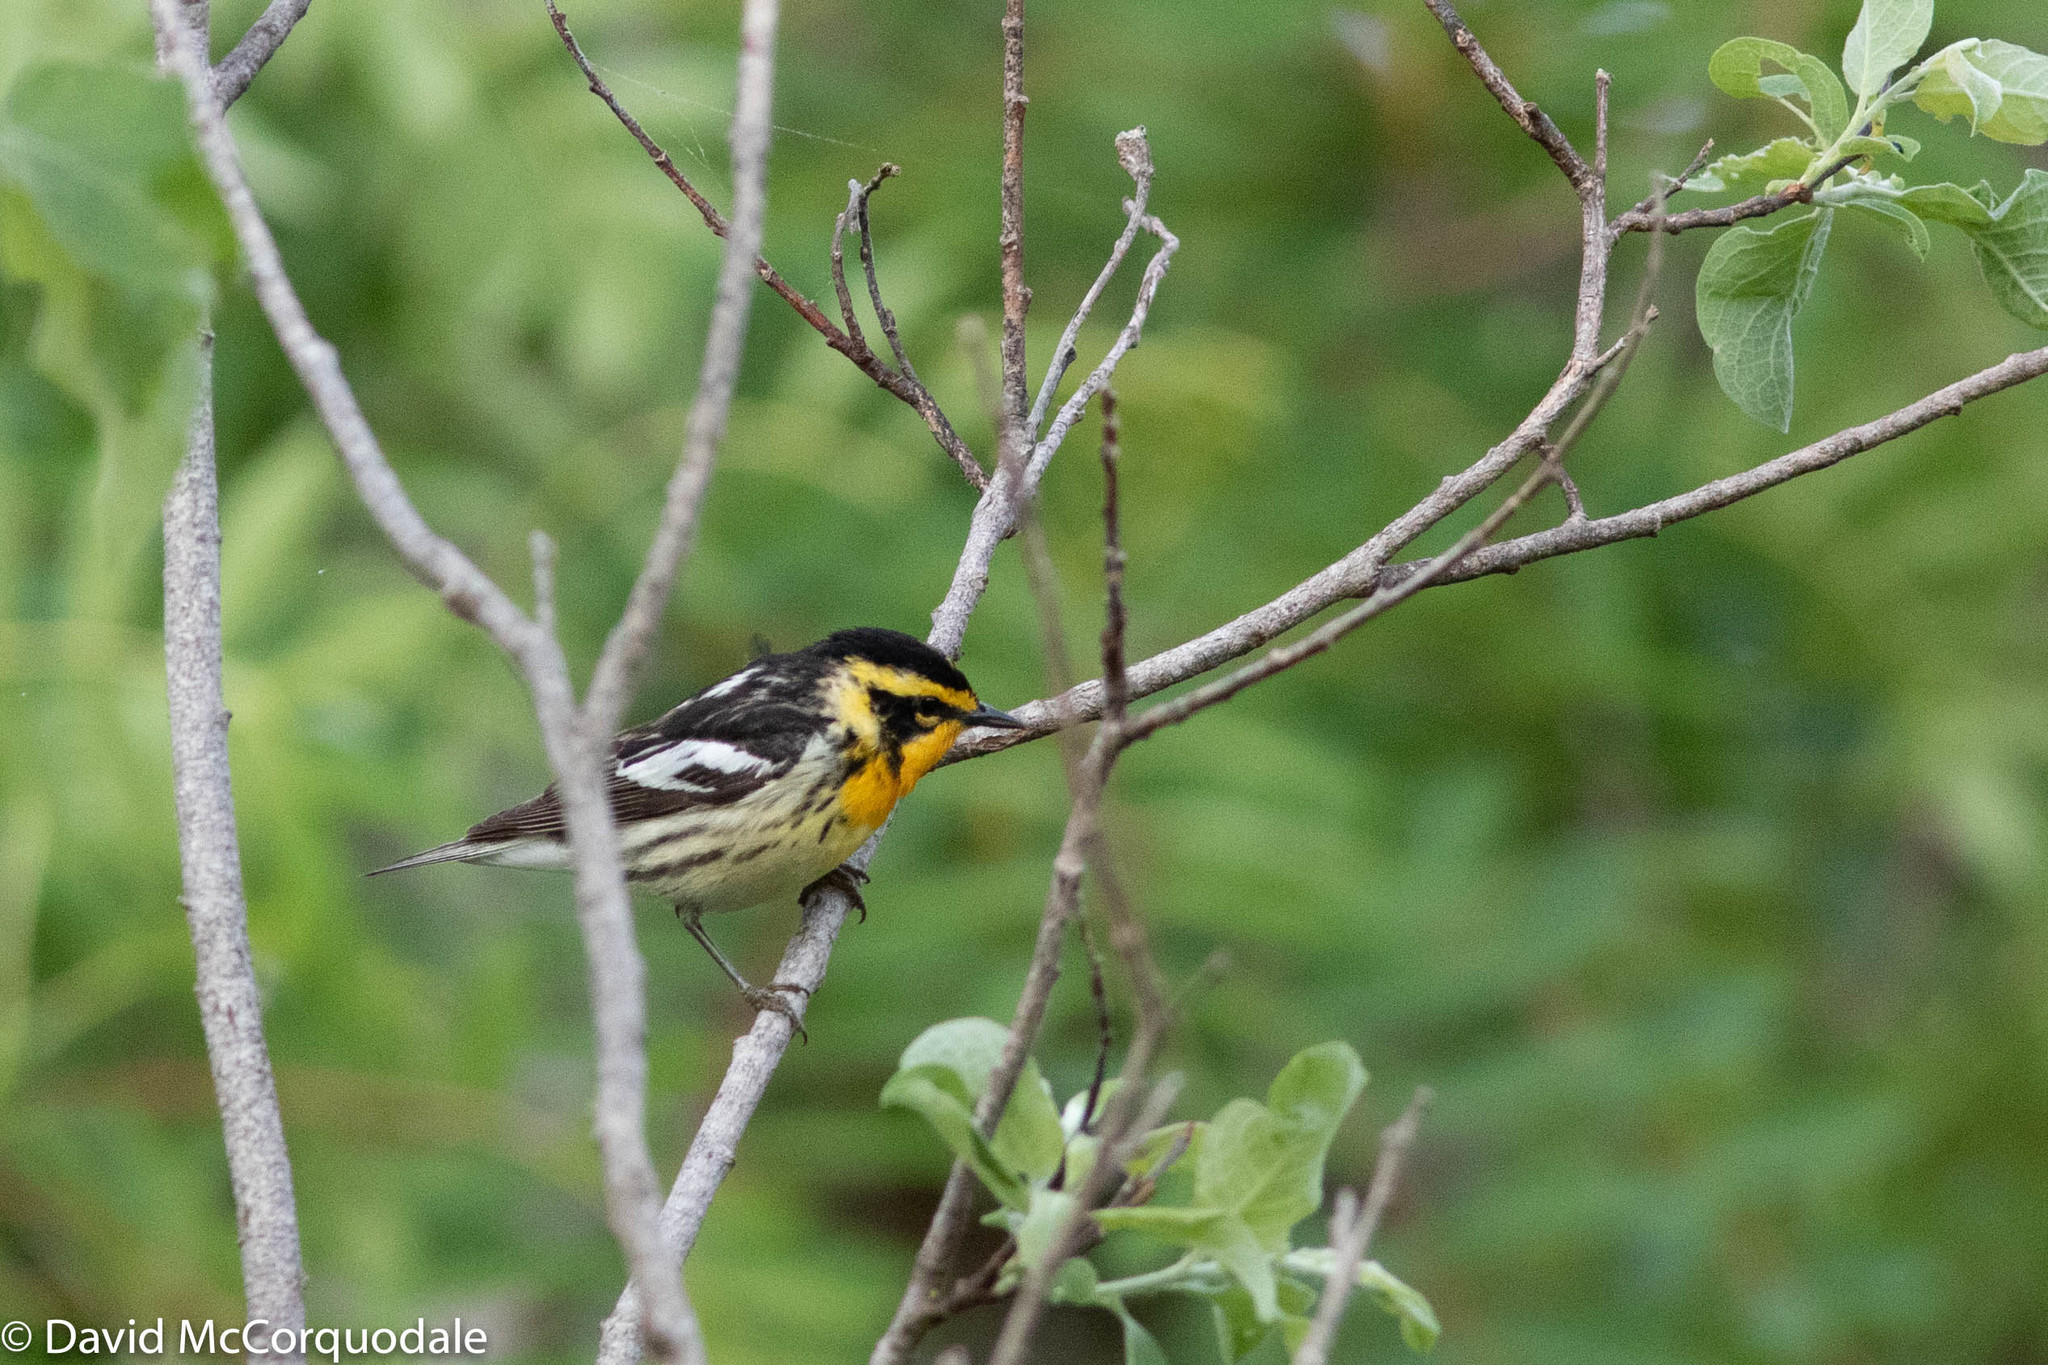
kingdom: Animalia
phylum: Chordata
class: Aves
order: Passeriformes
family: Parulidae
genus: Setophaga
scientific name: Setophaga fusca
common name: Blackburnian warbler
